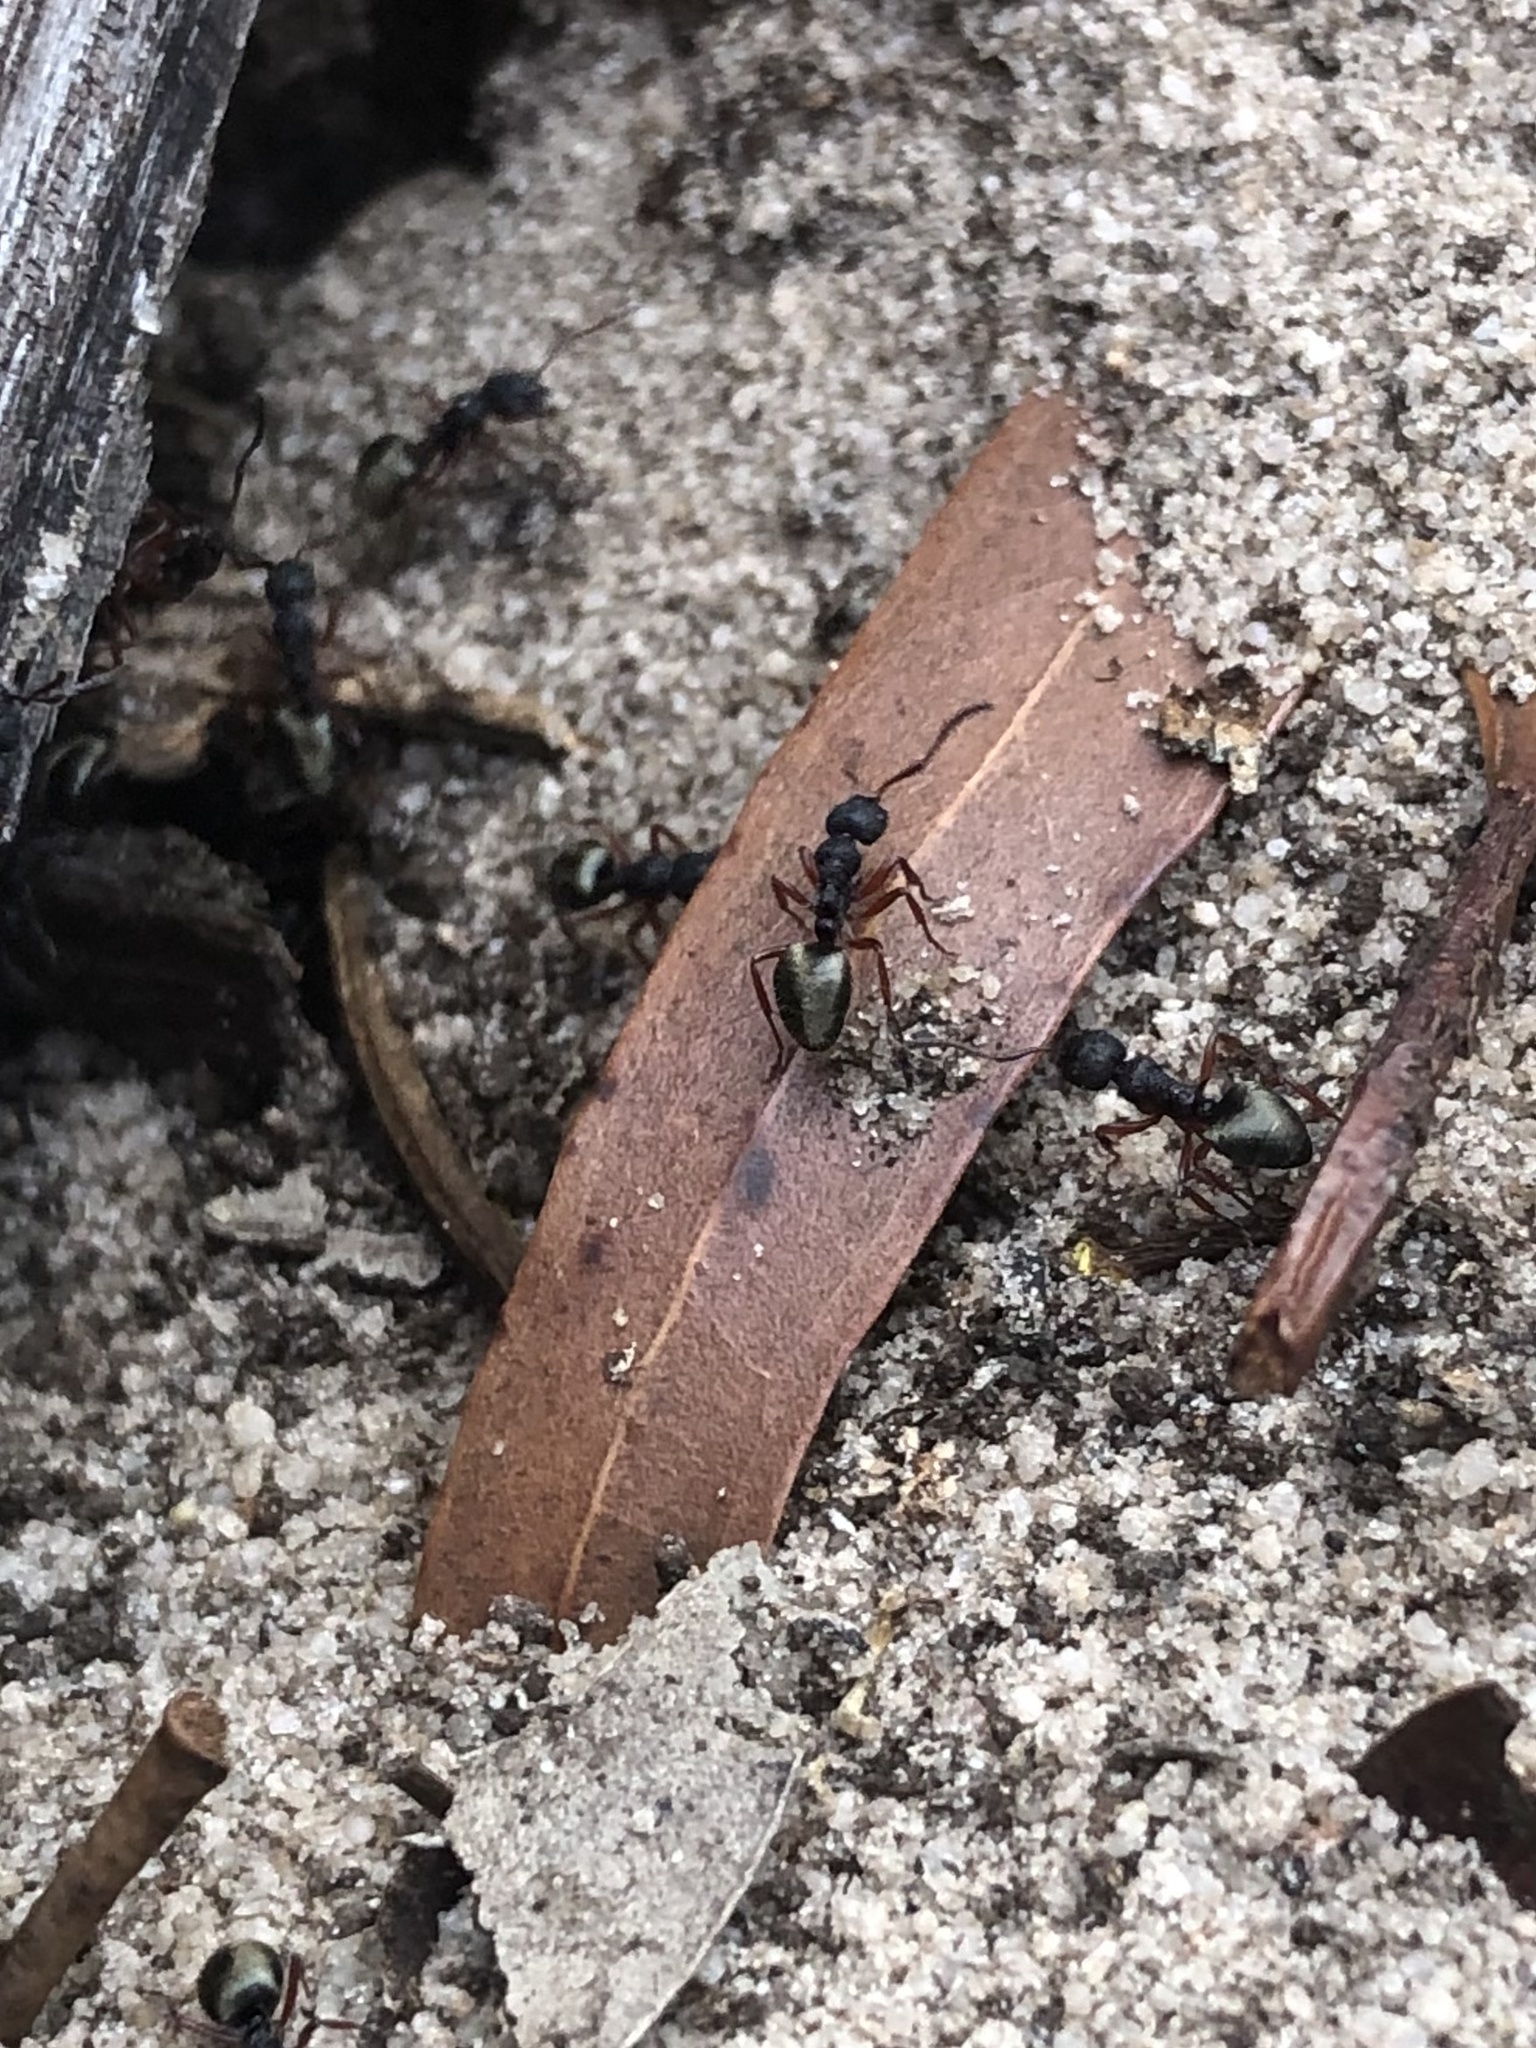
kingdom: Animalia
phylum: Arthropoda
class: Insecta
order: Hymenoptera
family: Formicidae
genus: Dolichoderus
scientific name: Dolichoderus scabridus
